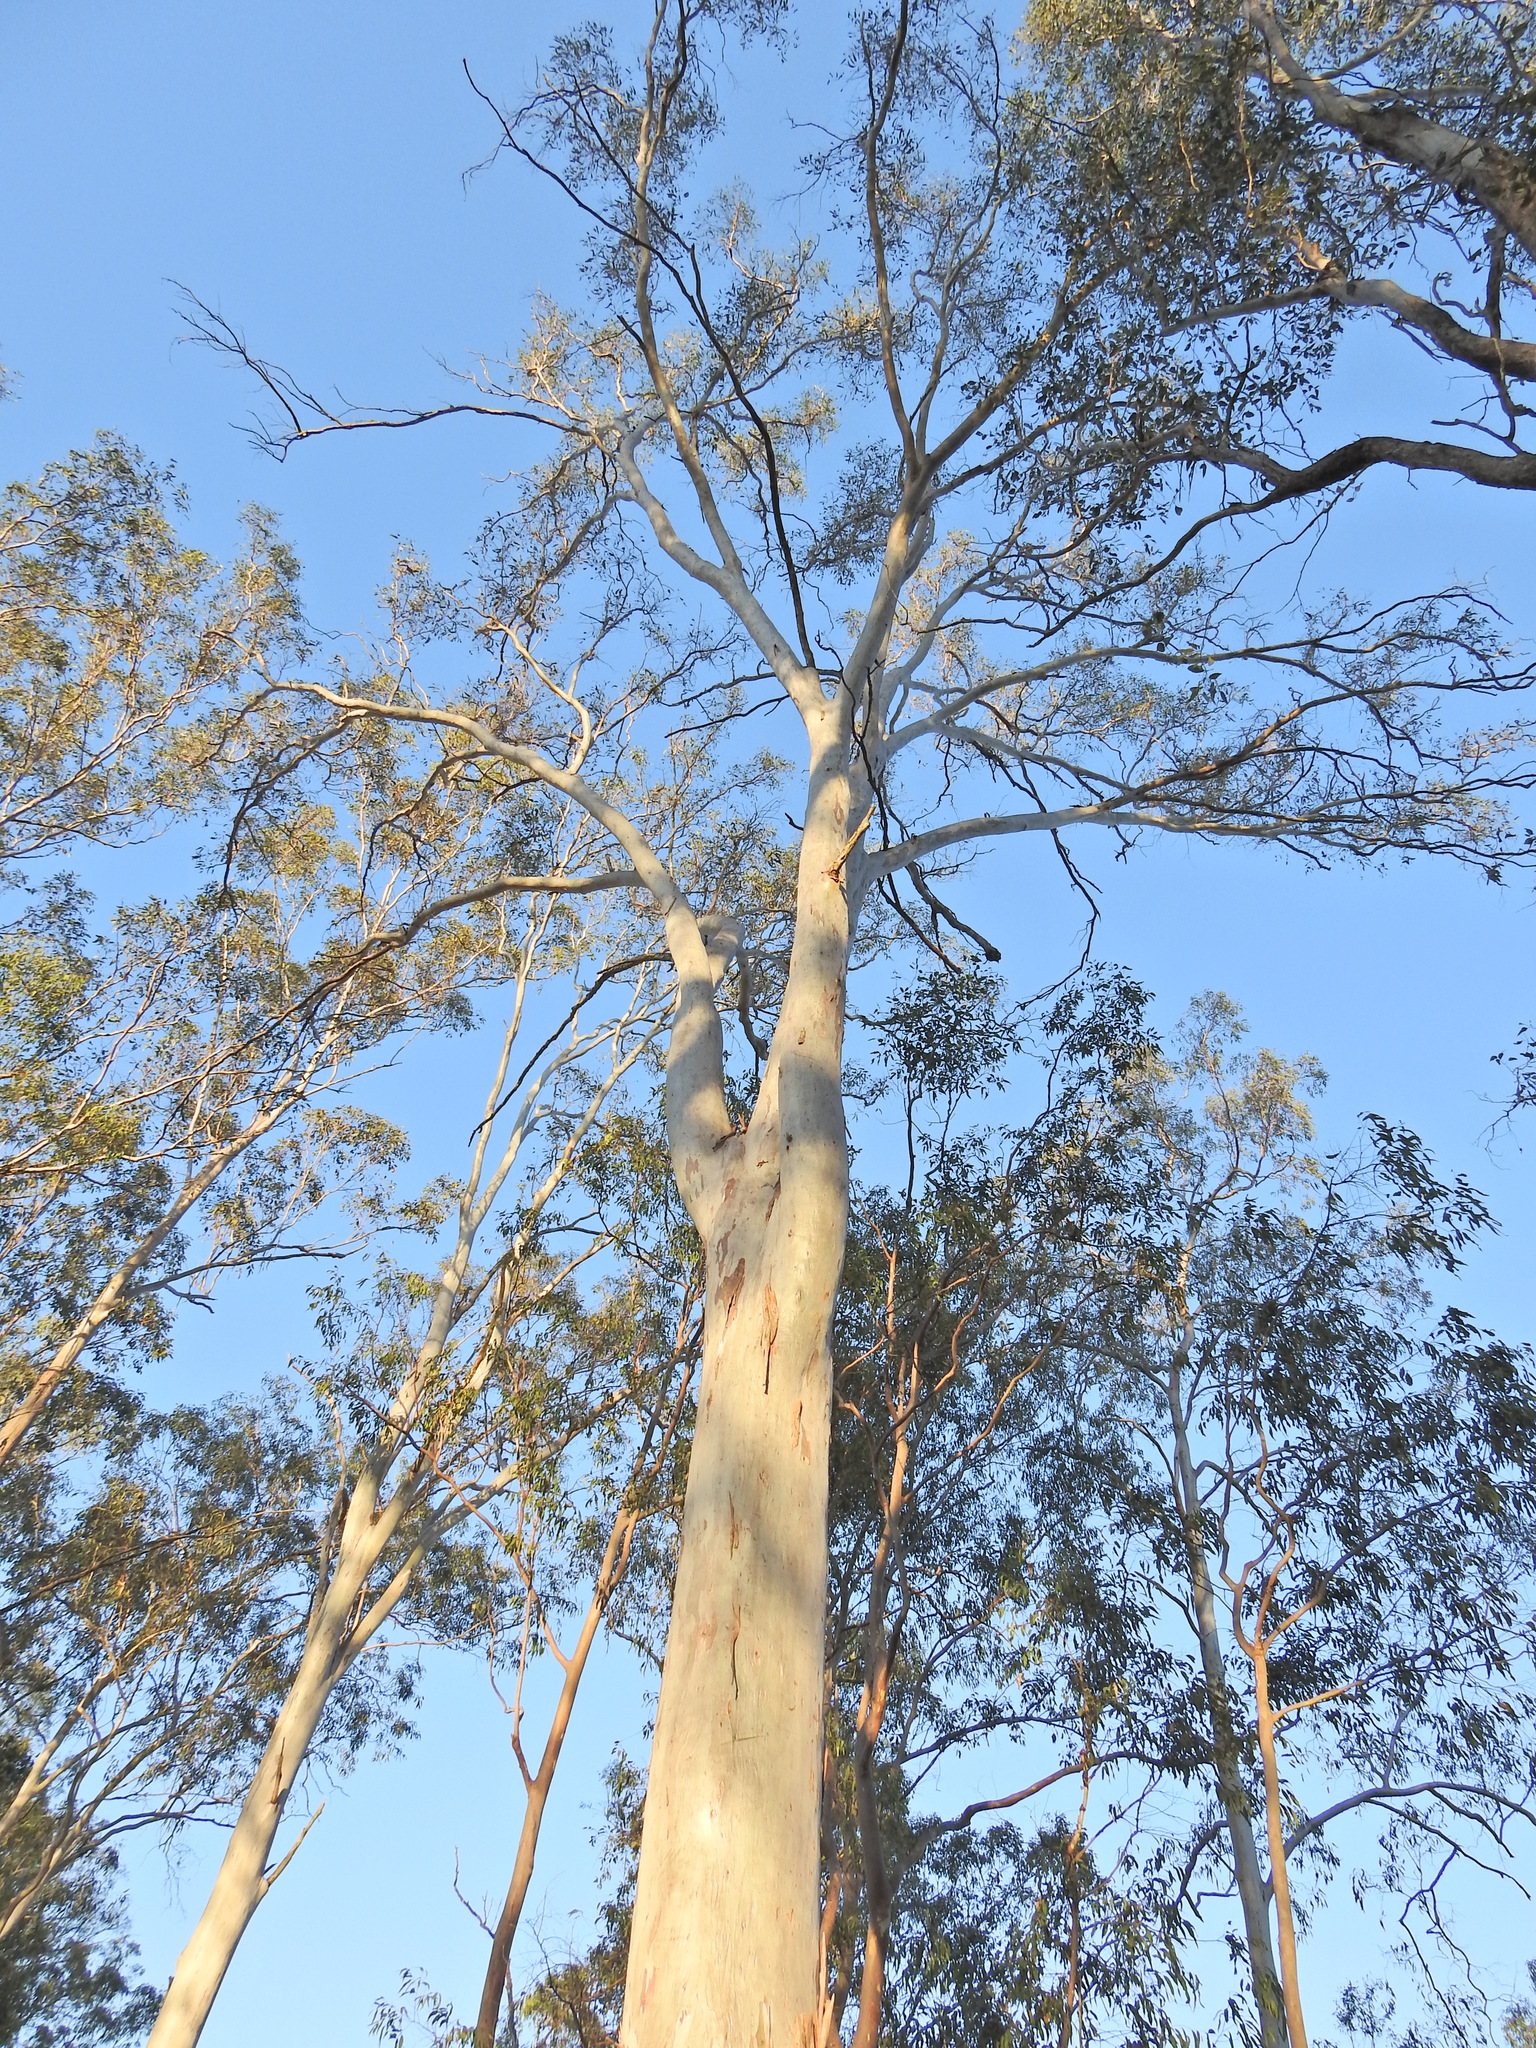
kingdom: Plantae
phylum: Tracheophyta
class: Magnoliopsida
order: Myrtales
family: Myrtaceae
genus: Eucalyptus
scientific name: Eucalyptus tereticornis
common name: Forest redgum
